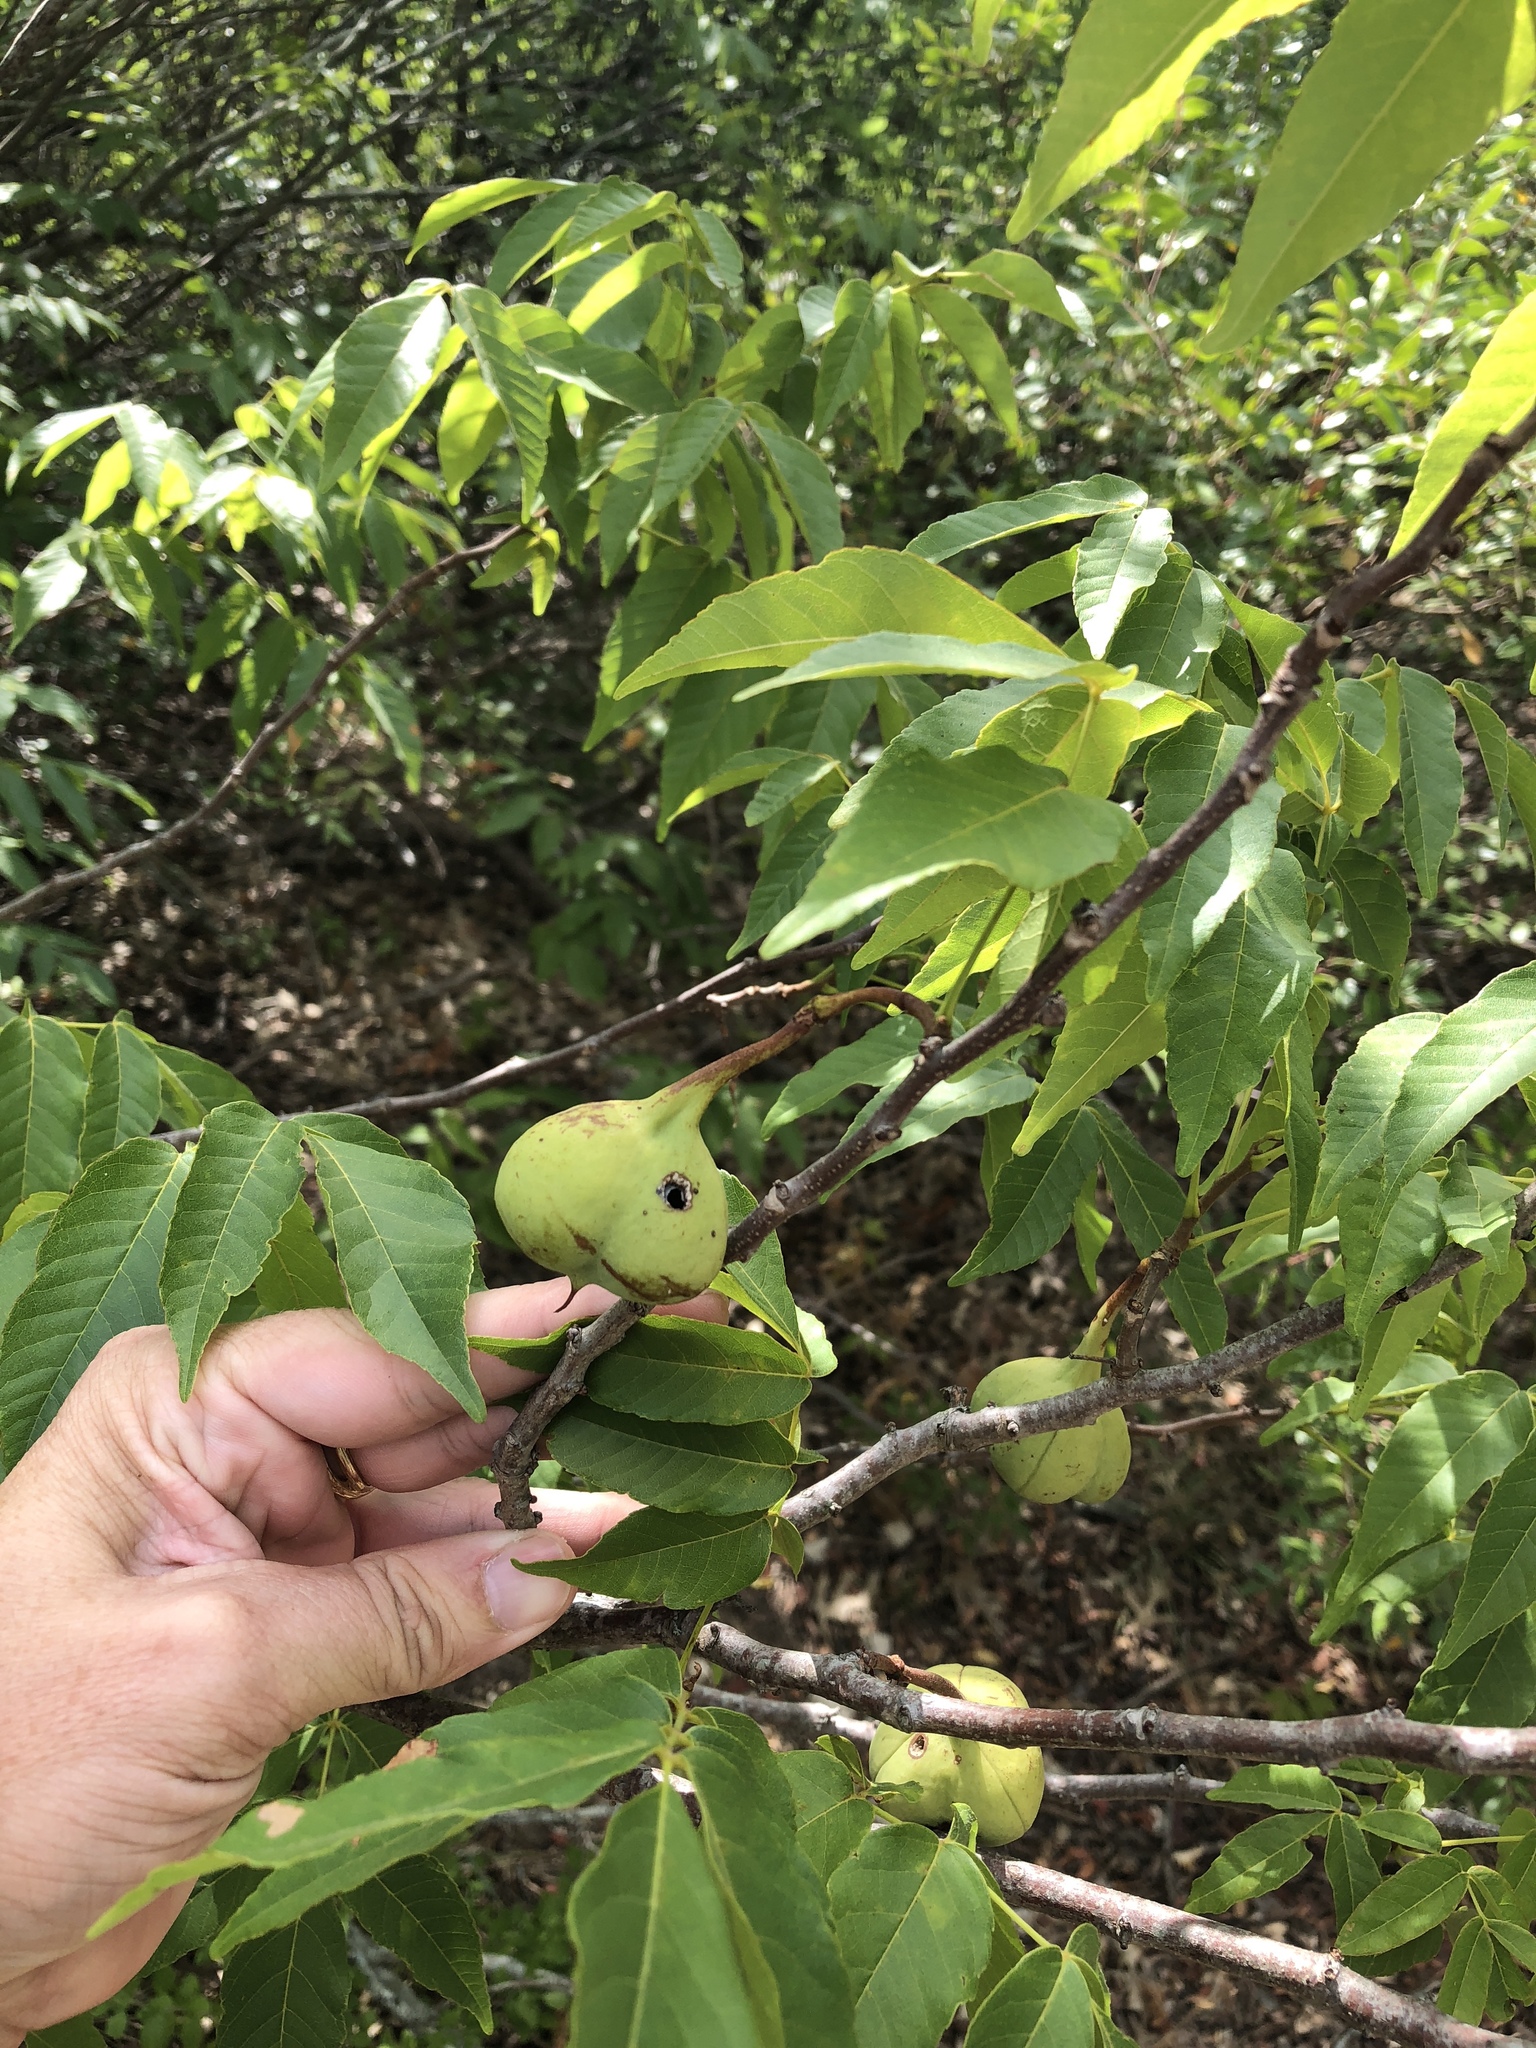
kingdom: Plantae
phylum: Tracheophyta
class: Magnoliopsida
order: Sapindales
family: Sapindaceae
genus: Ungnadia
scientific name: Ungnadia speciosa
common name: Texas-buckeye
